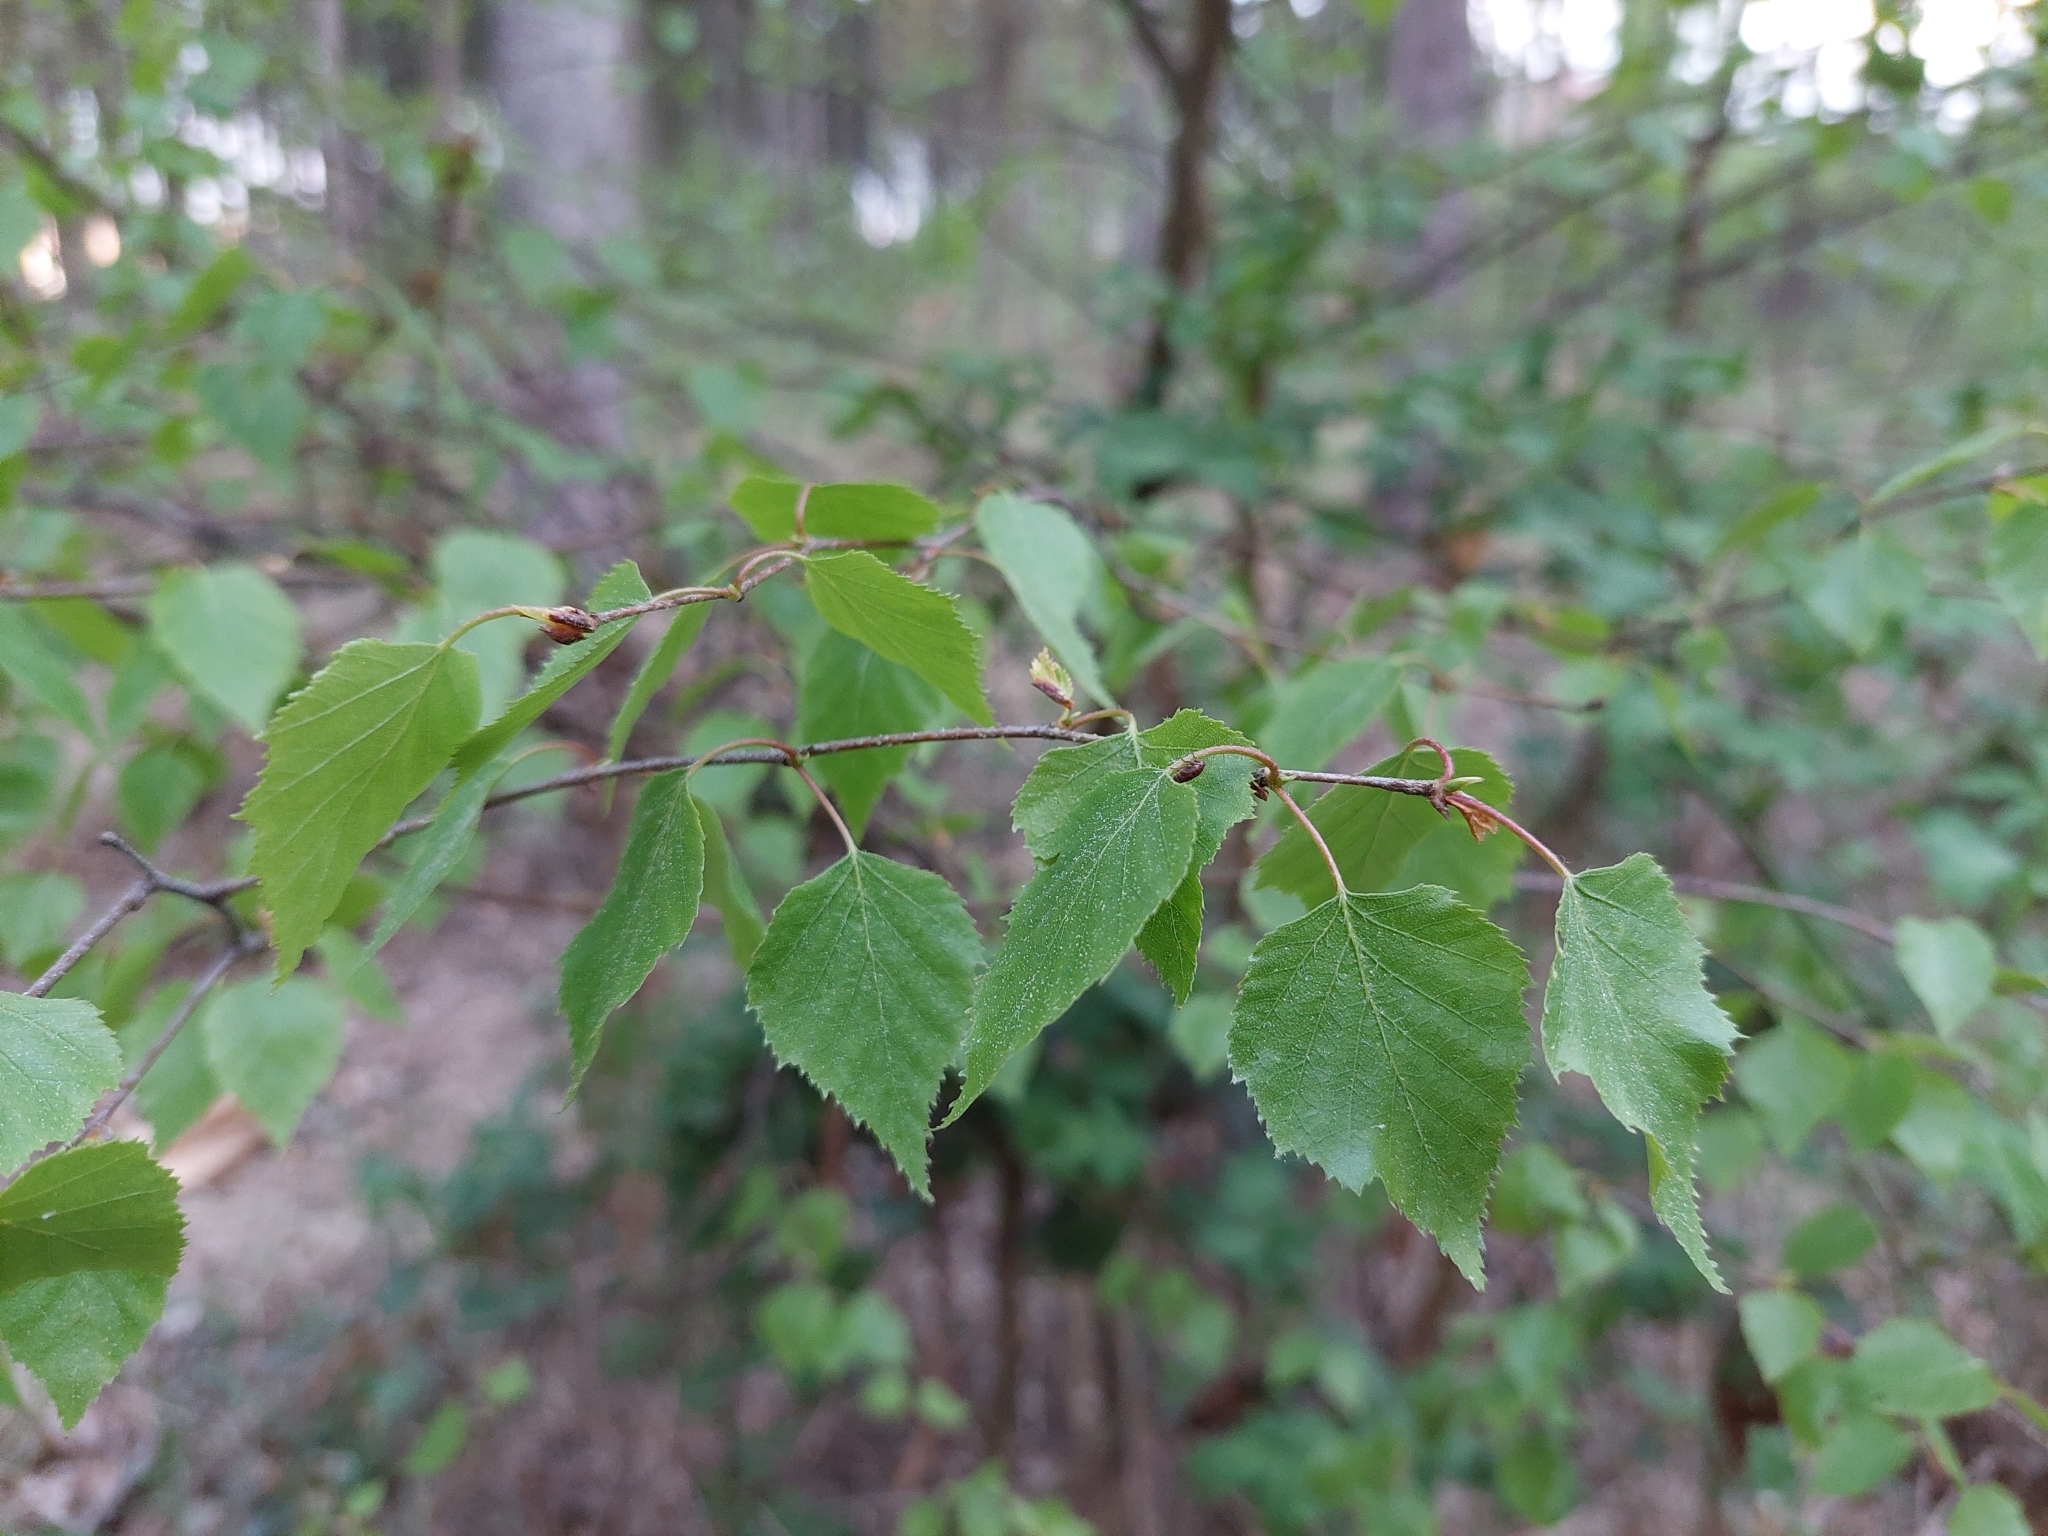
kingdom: Plantae
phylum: Tracheophyta
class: Magnoliopsida
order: Fagales
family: Betulaceae
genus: Betula
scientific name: Betula pendula
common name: Silver birch
